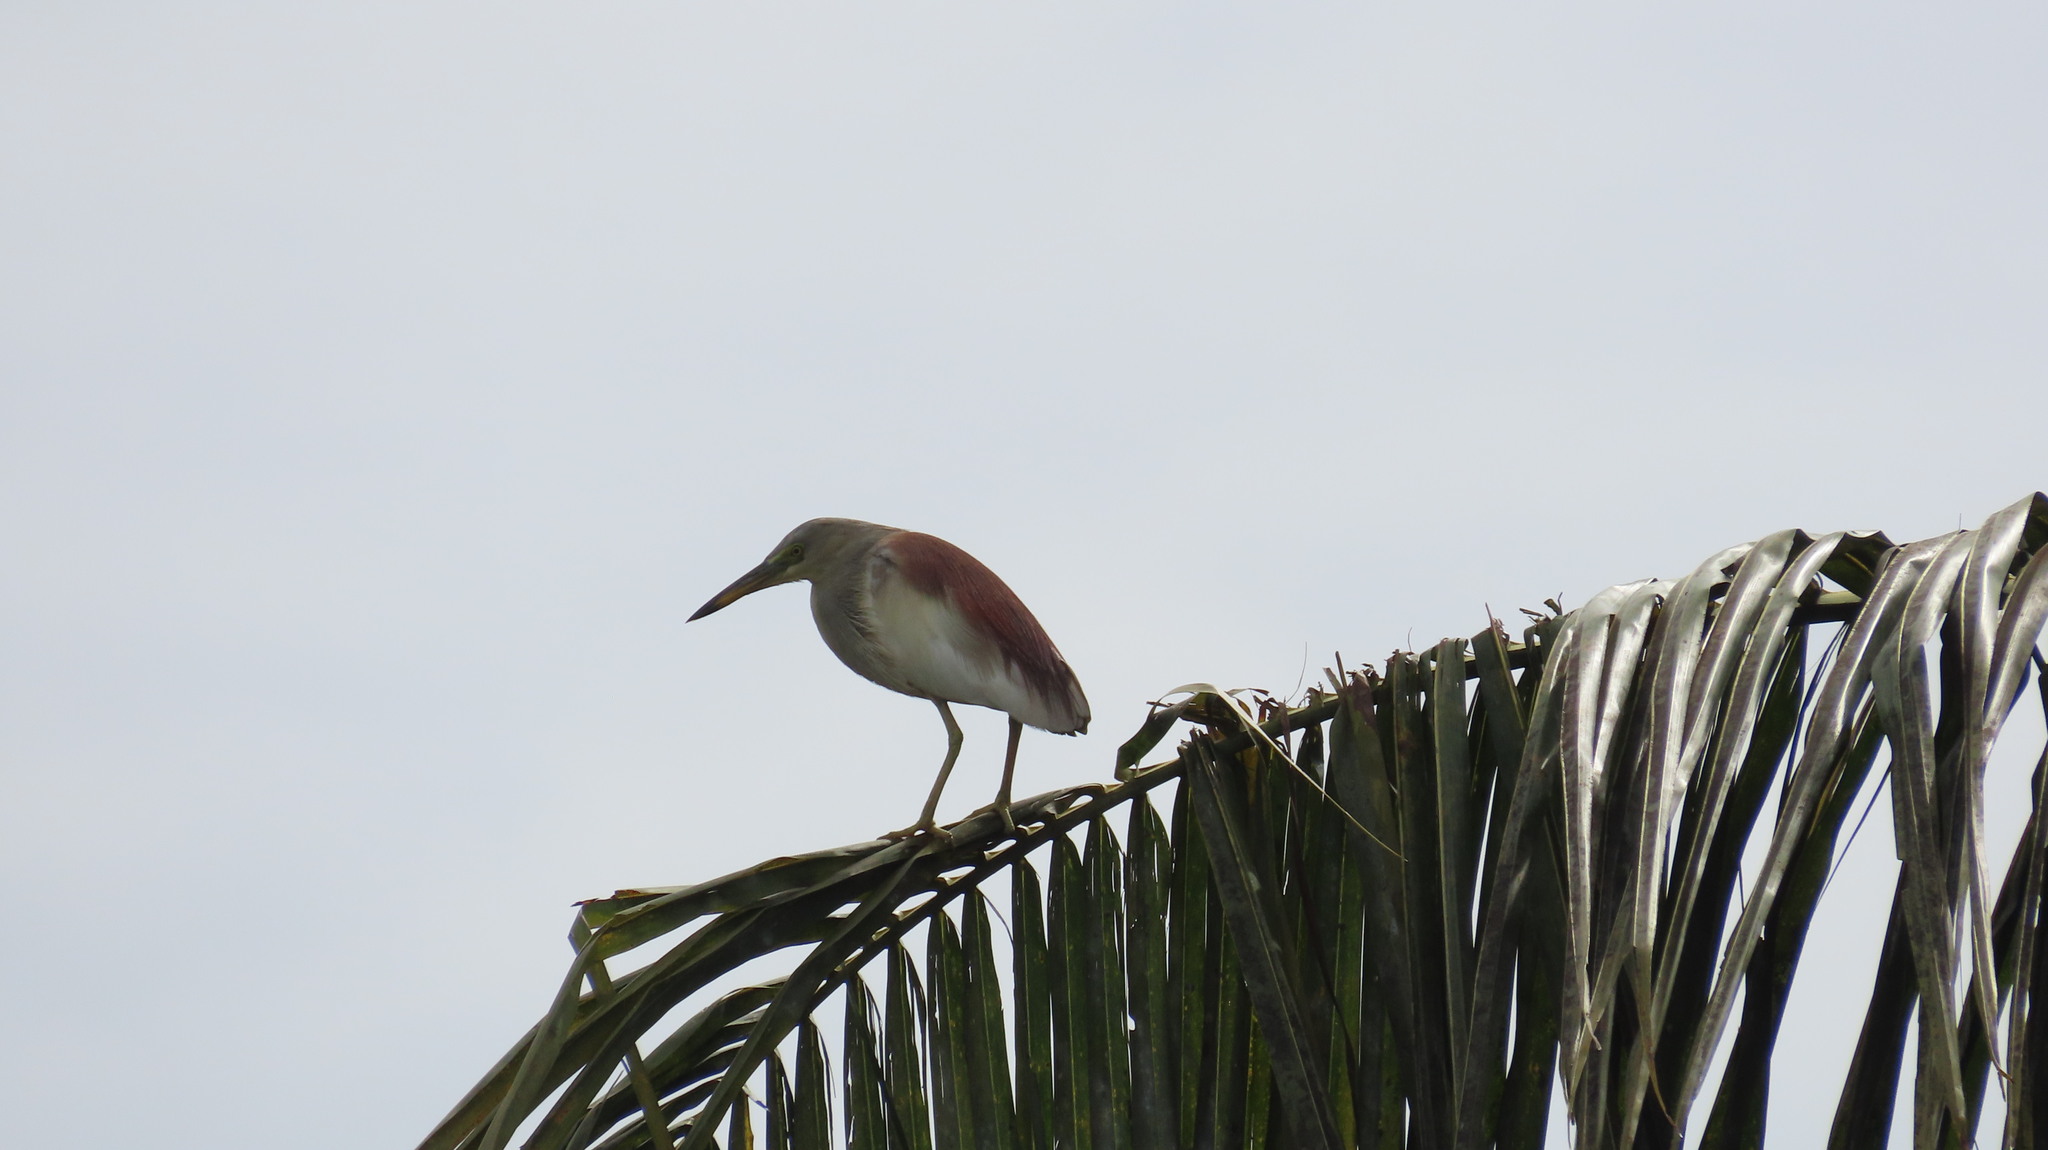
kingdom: Animalia
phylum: Chordata
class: Aves
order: Pelecaniformes
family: Ardeidae
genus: Ardeola
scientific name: Ardeola grayii
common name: Indian pond heron
